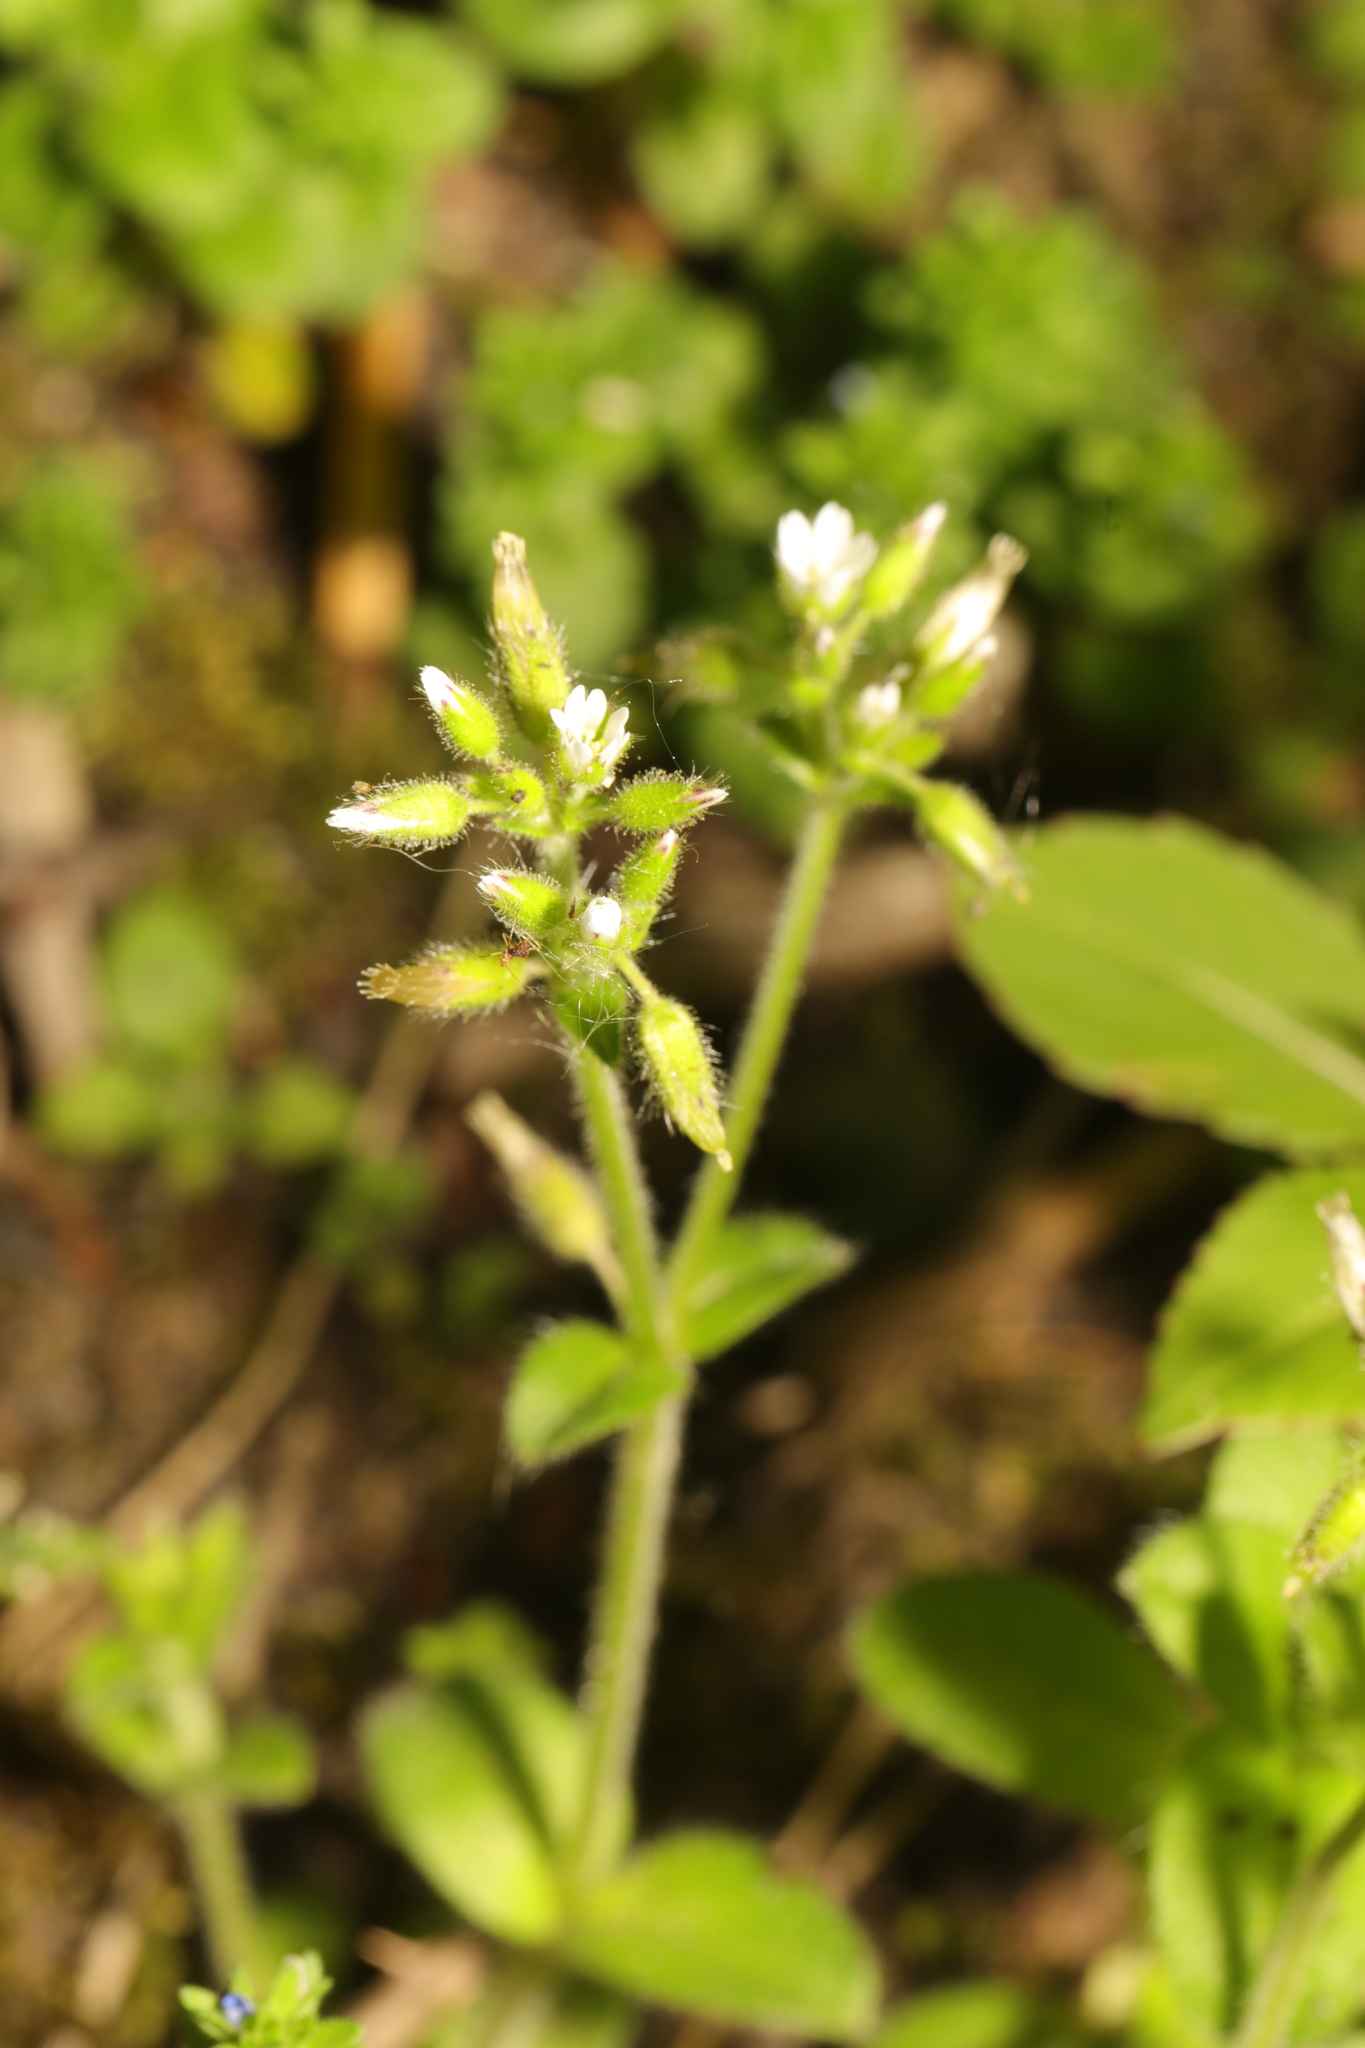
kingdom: Plantae
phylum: Tracheophyta
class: Magnoliopsida
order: Caryophyllales
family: Caryophyllaceae
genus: Cerastium
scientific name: Cerastium glomeratum
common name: Sticky chickweed
